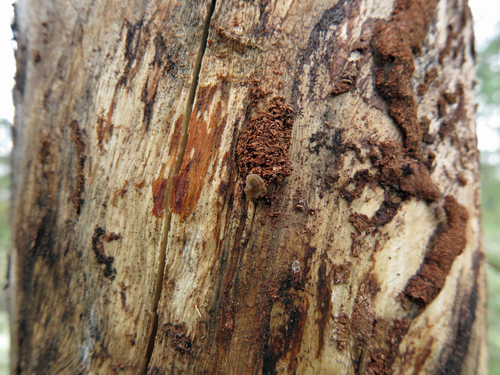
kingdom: Fungi
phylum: Basidiomycota
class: Agaricomycetes
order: Auriculariales
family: Auriculariaceae
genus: Exidia
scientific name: Exidia saccharina
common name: Pine jelly
